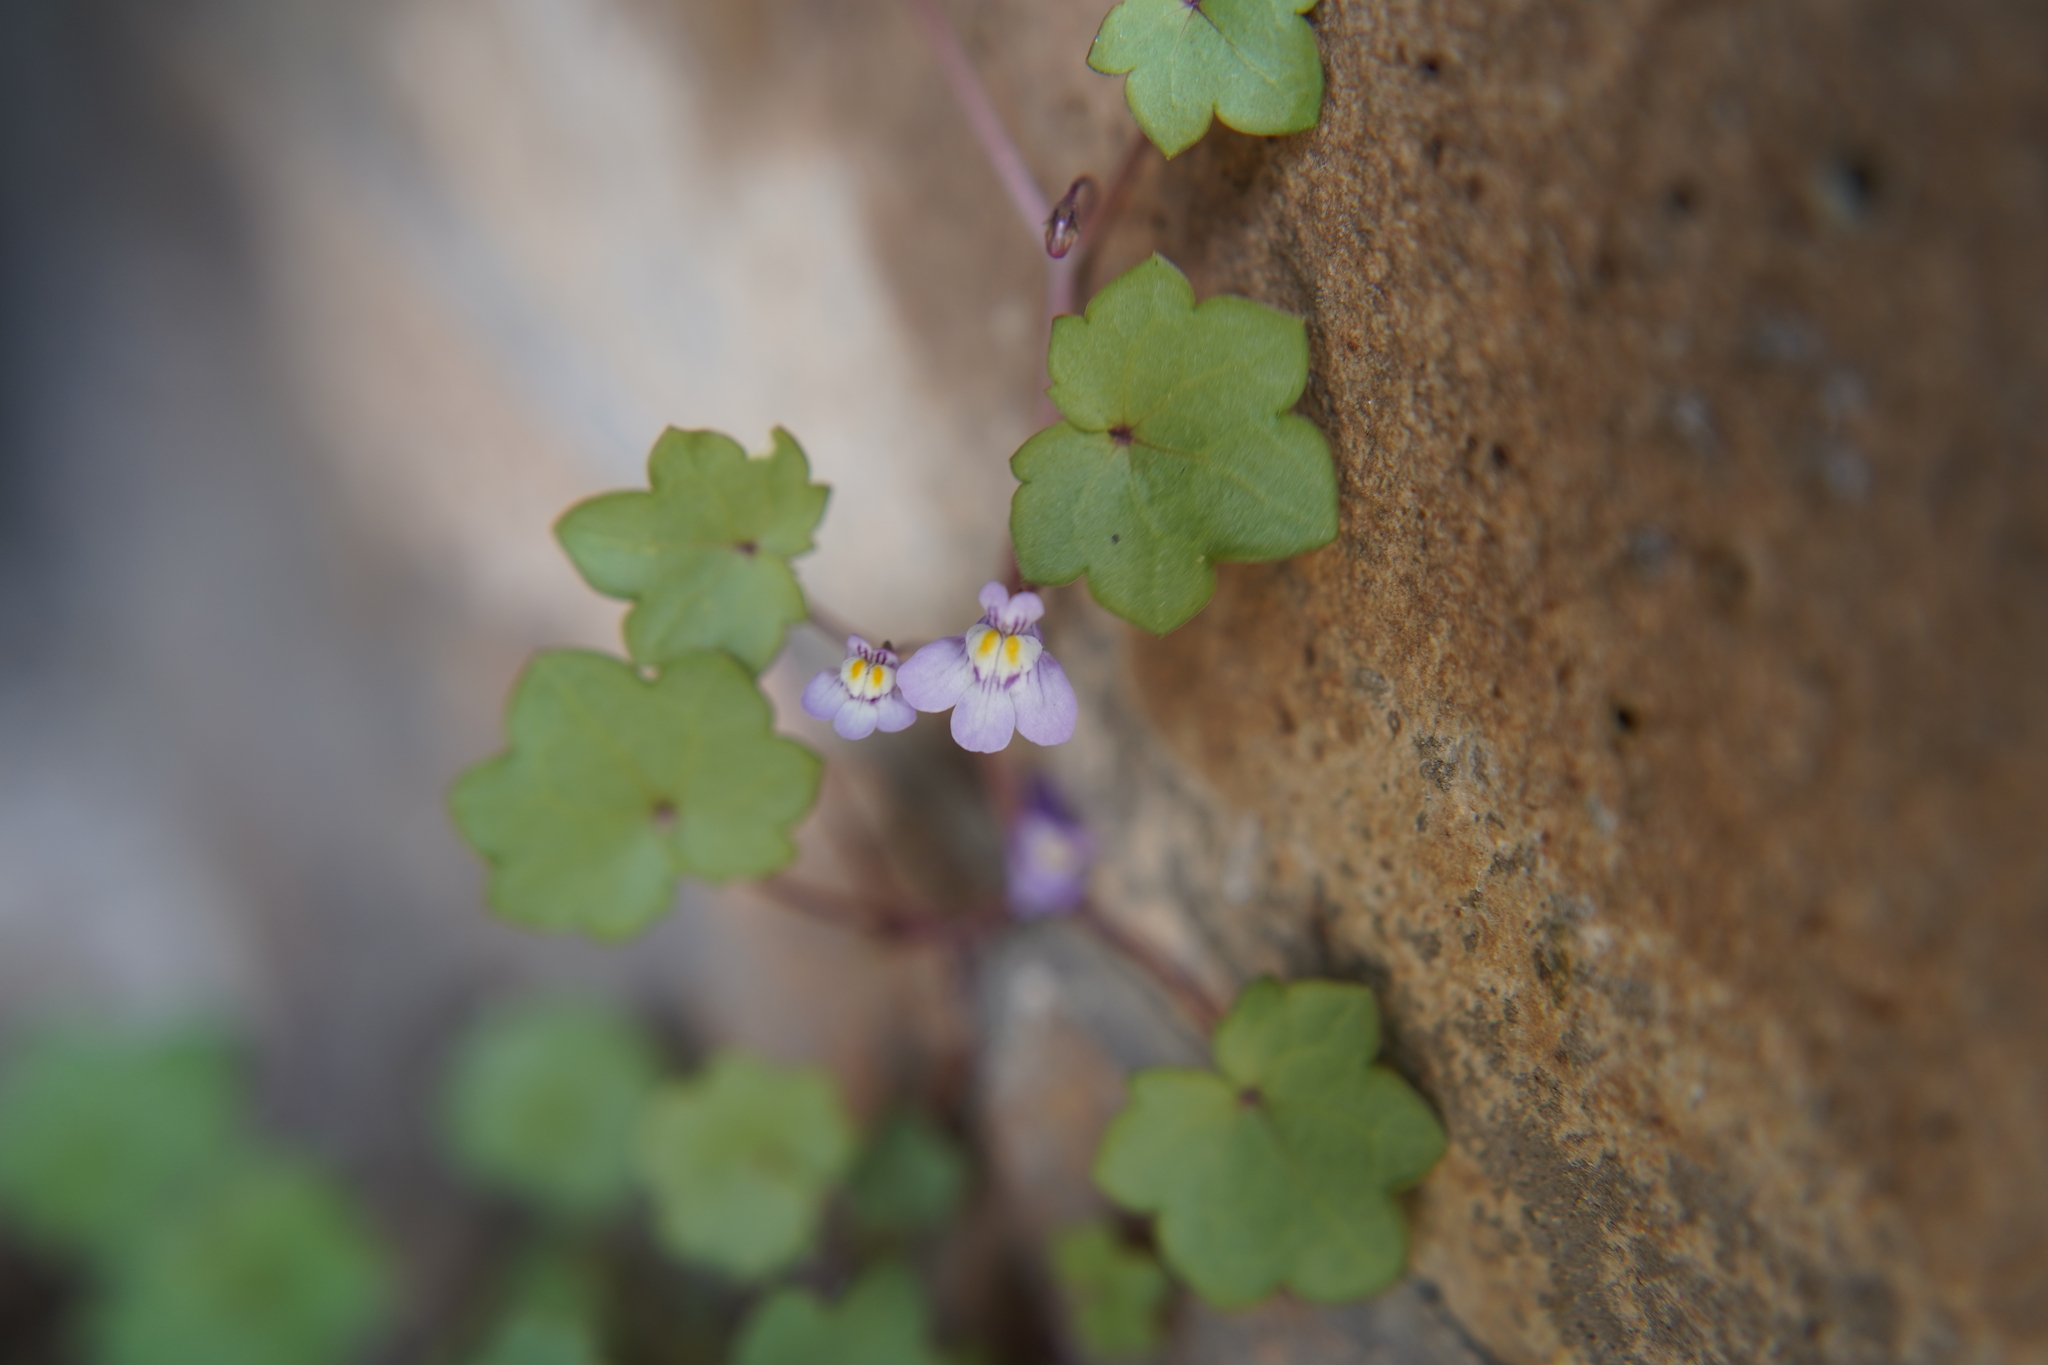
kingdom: Plantae
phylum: Tracheophyta
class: Magnoliopsida
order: Lamiales
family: Plantaginaceae
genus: Cymbalaria
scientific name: Cymbalaria muralis
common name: Ivy-leaved toadflax
